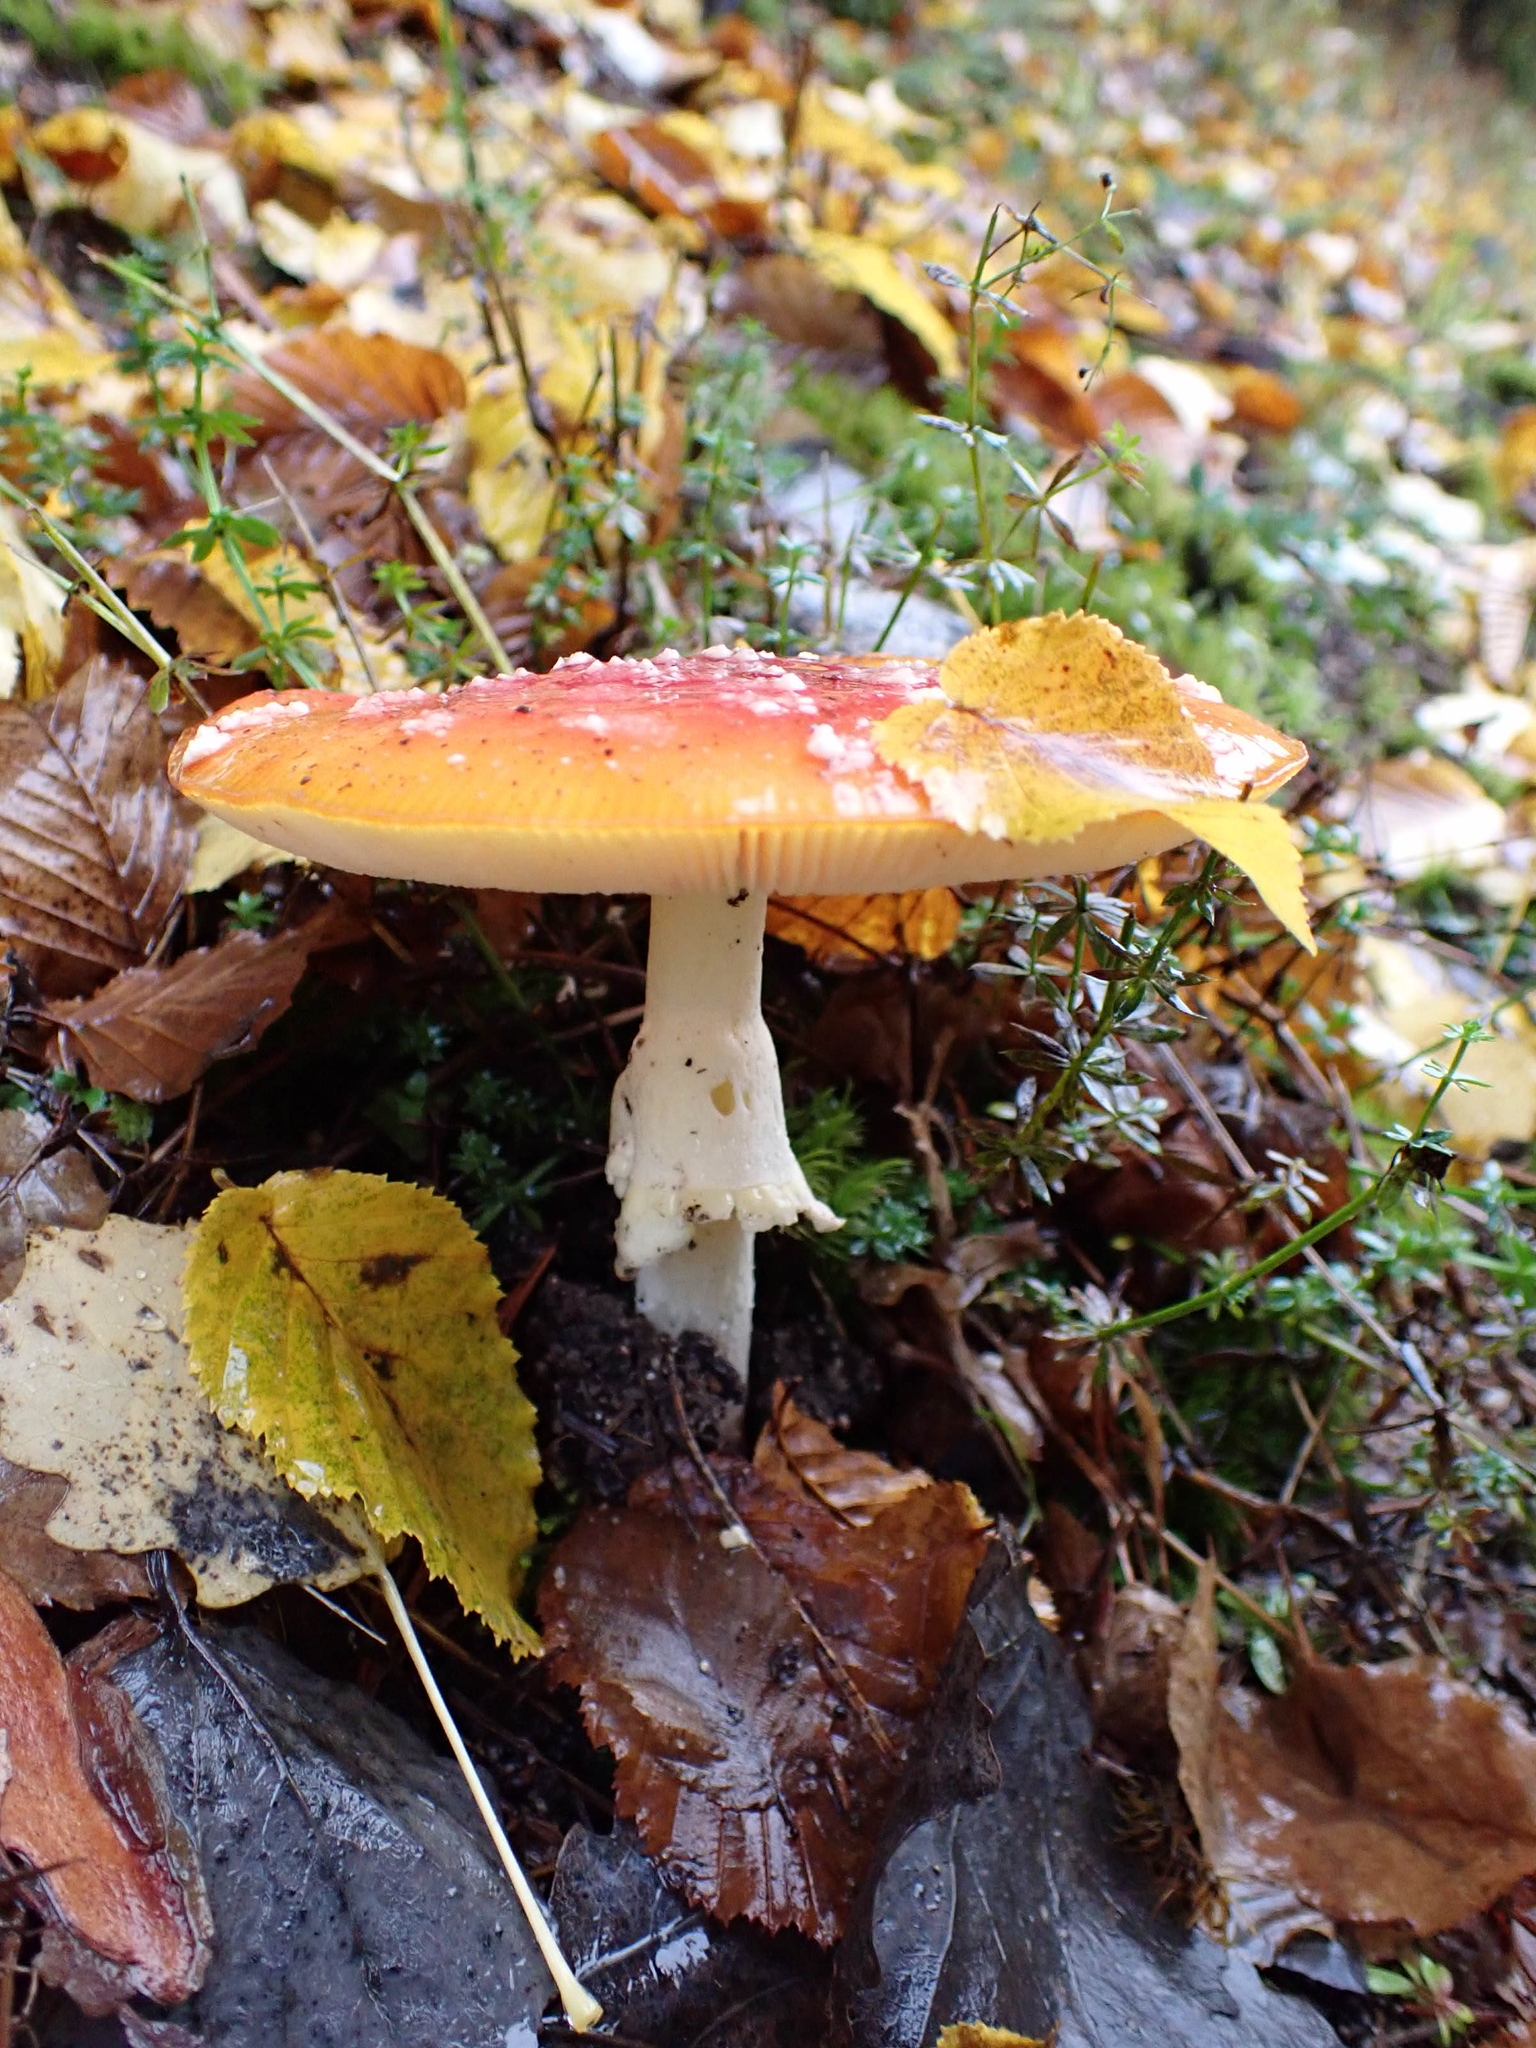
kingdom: Fungi
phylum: Basidiomycota
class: Agaricomycetes
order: Agaricales
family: Amanitaceae
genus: Amanita
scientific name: Amanita muscaria
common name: Fly agaric
